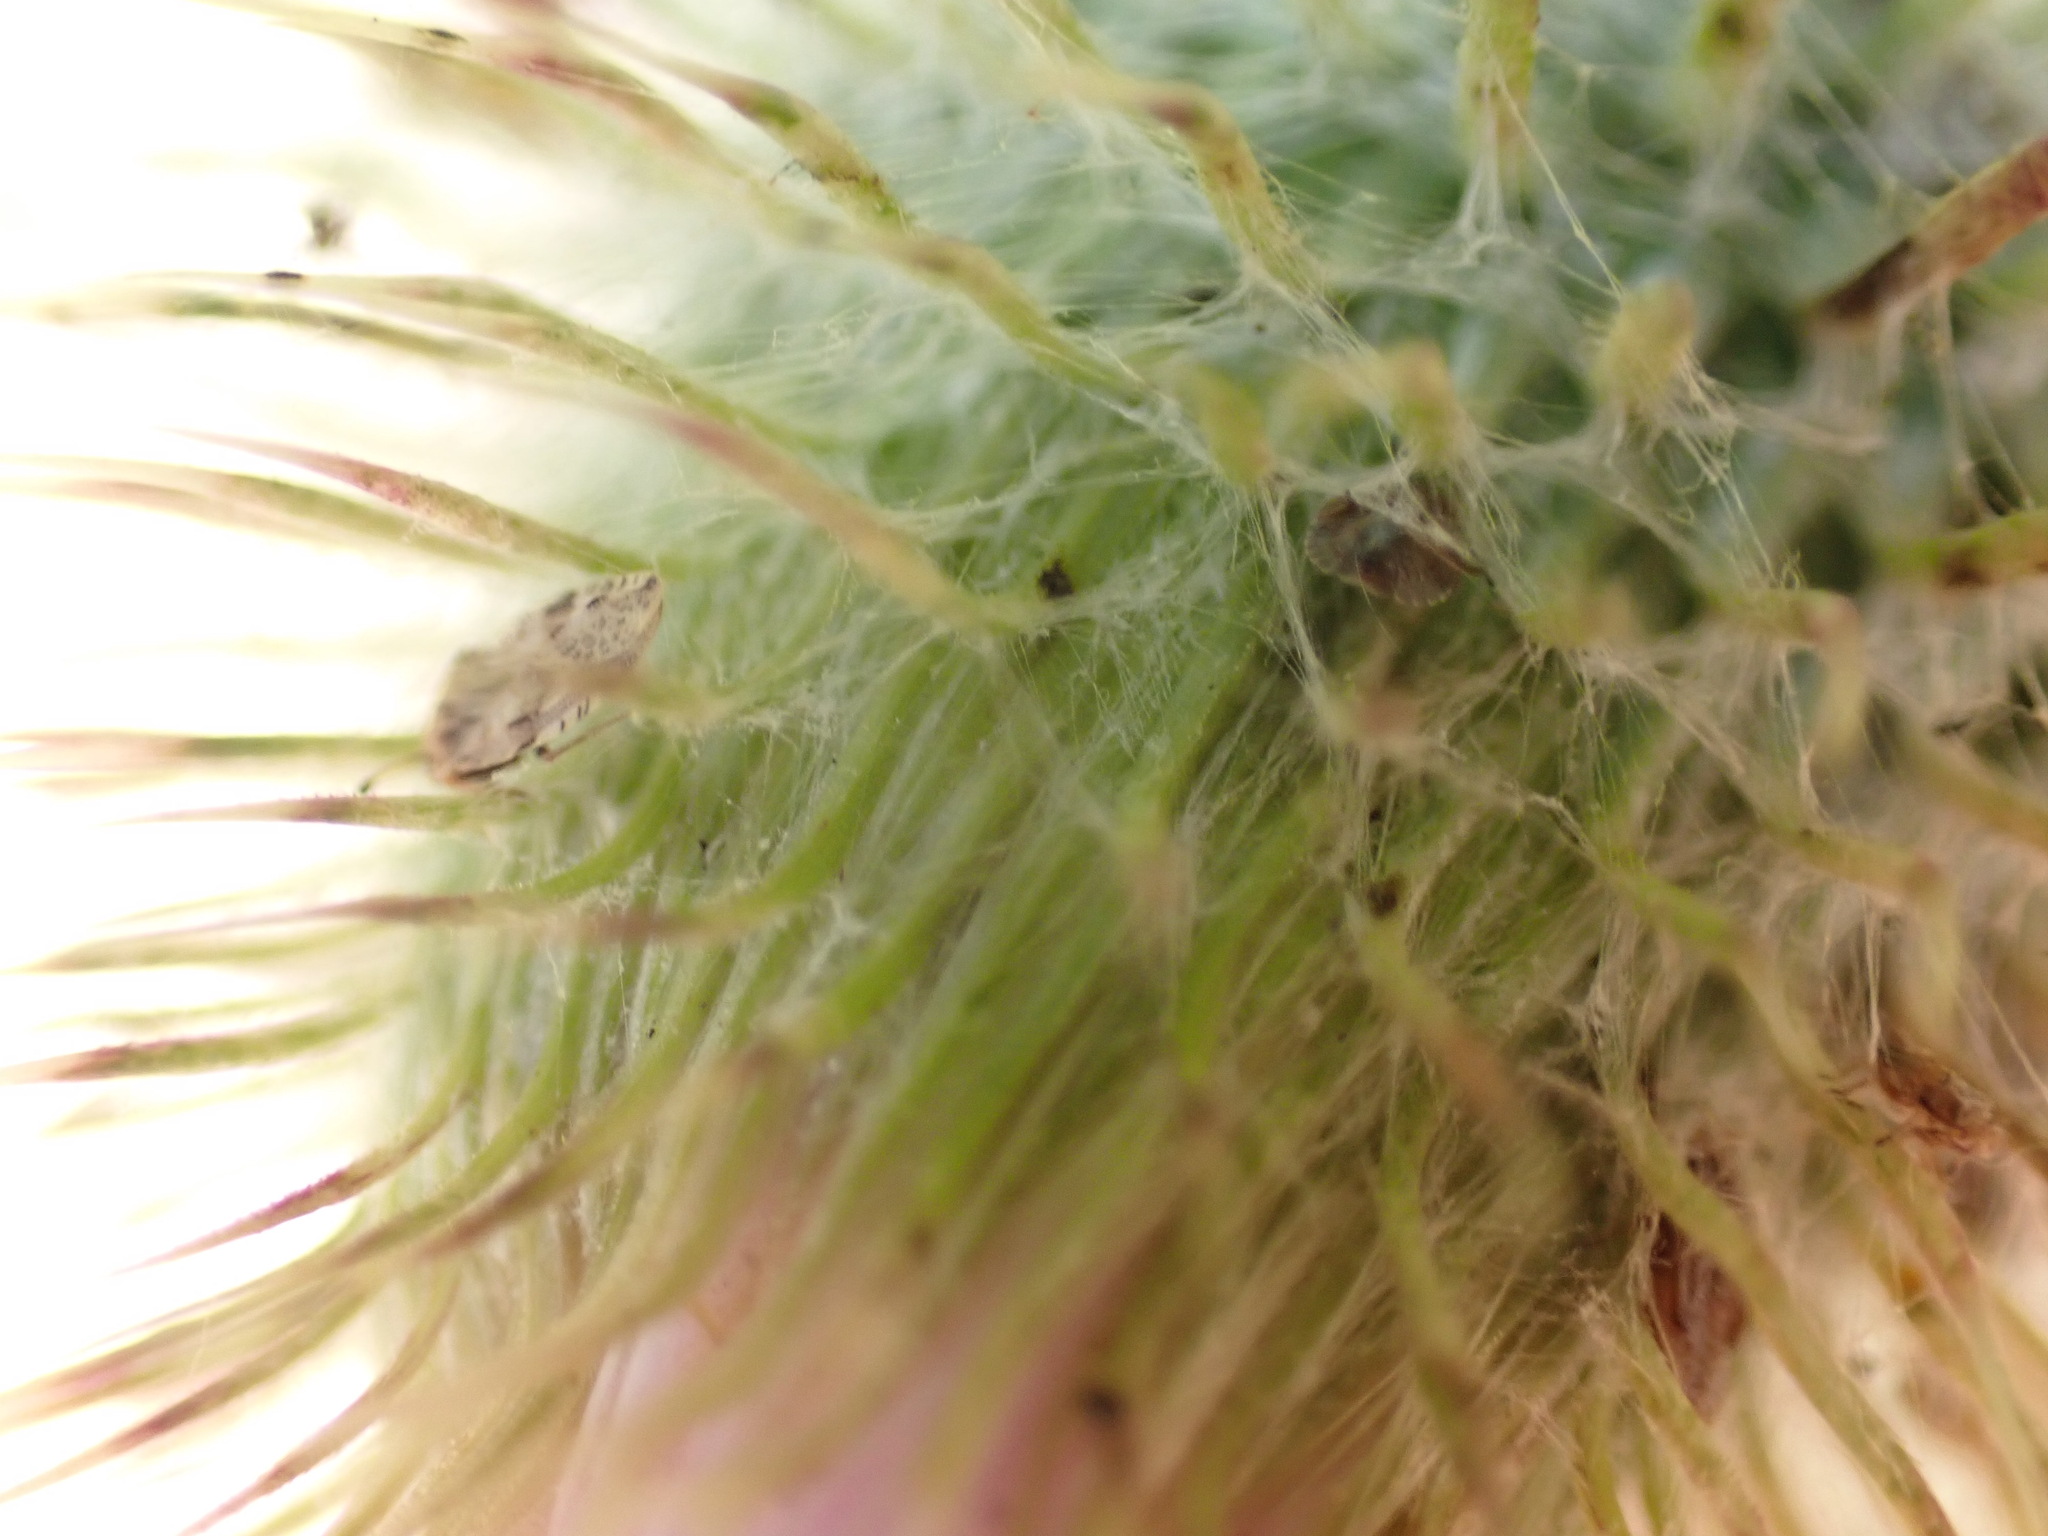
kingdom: Animalia
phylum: Arthropoda
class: Insecta
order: Hemiptera
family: Tingidae
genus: Tingis
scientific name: Tingis cardui
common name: Spear thistle lacebug
